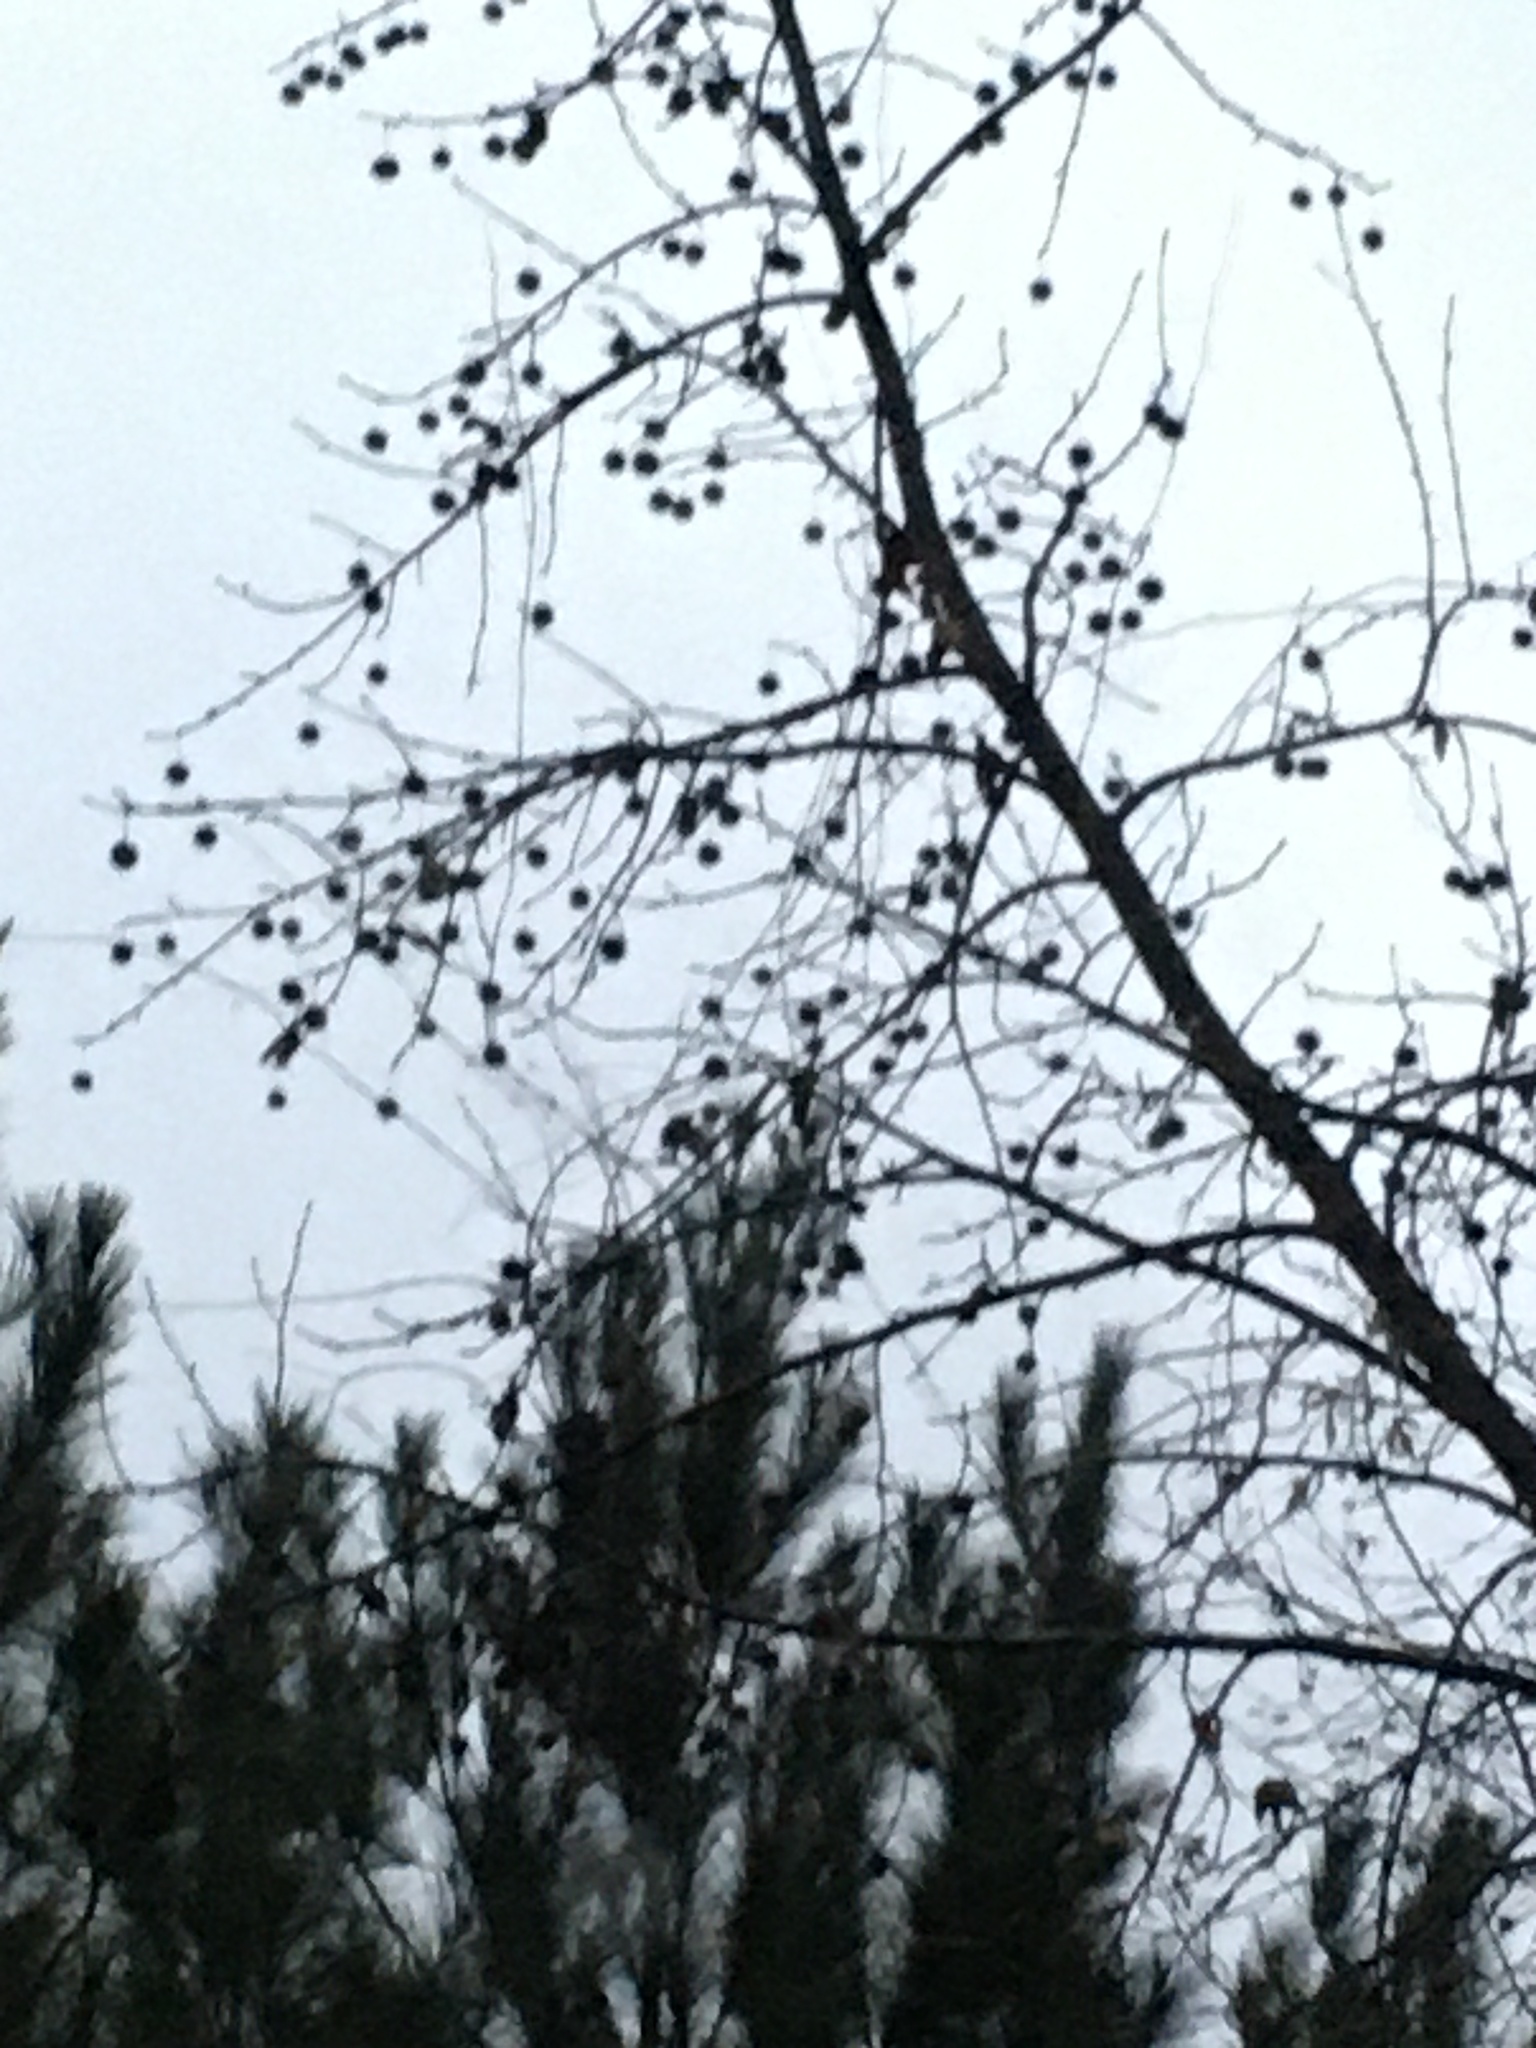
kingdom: Plantae
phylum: Tracheophyta
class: Magnoliopsida
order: Saxifragales
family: Altingiaceae
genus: Liquidambar
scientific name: Liquidambar styraciflua
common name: Sweet gum
